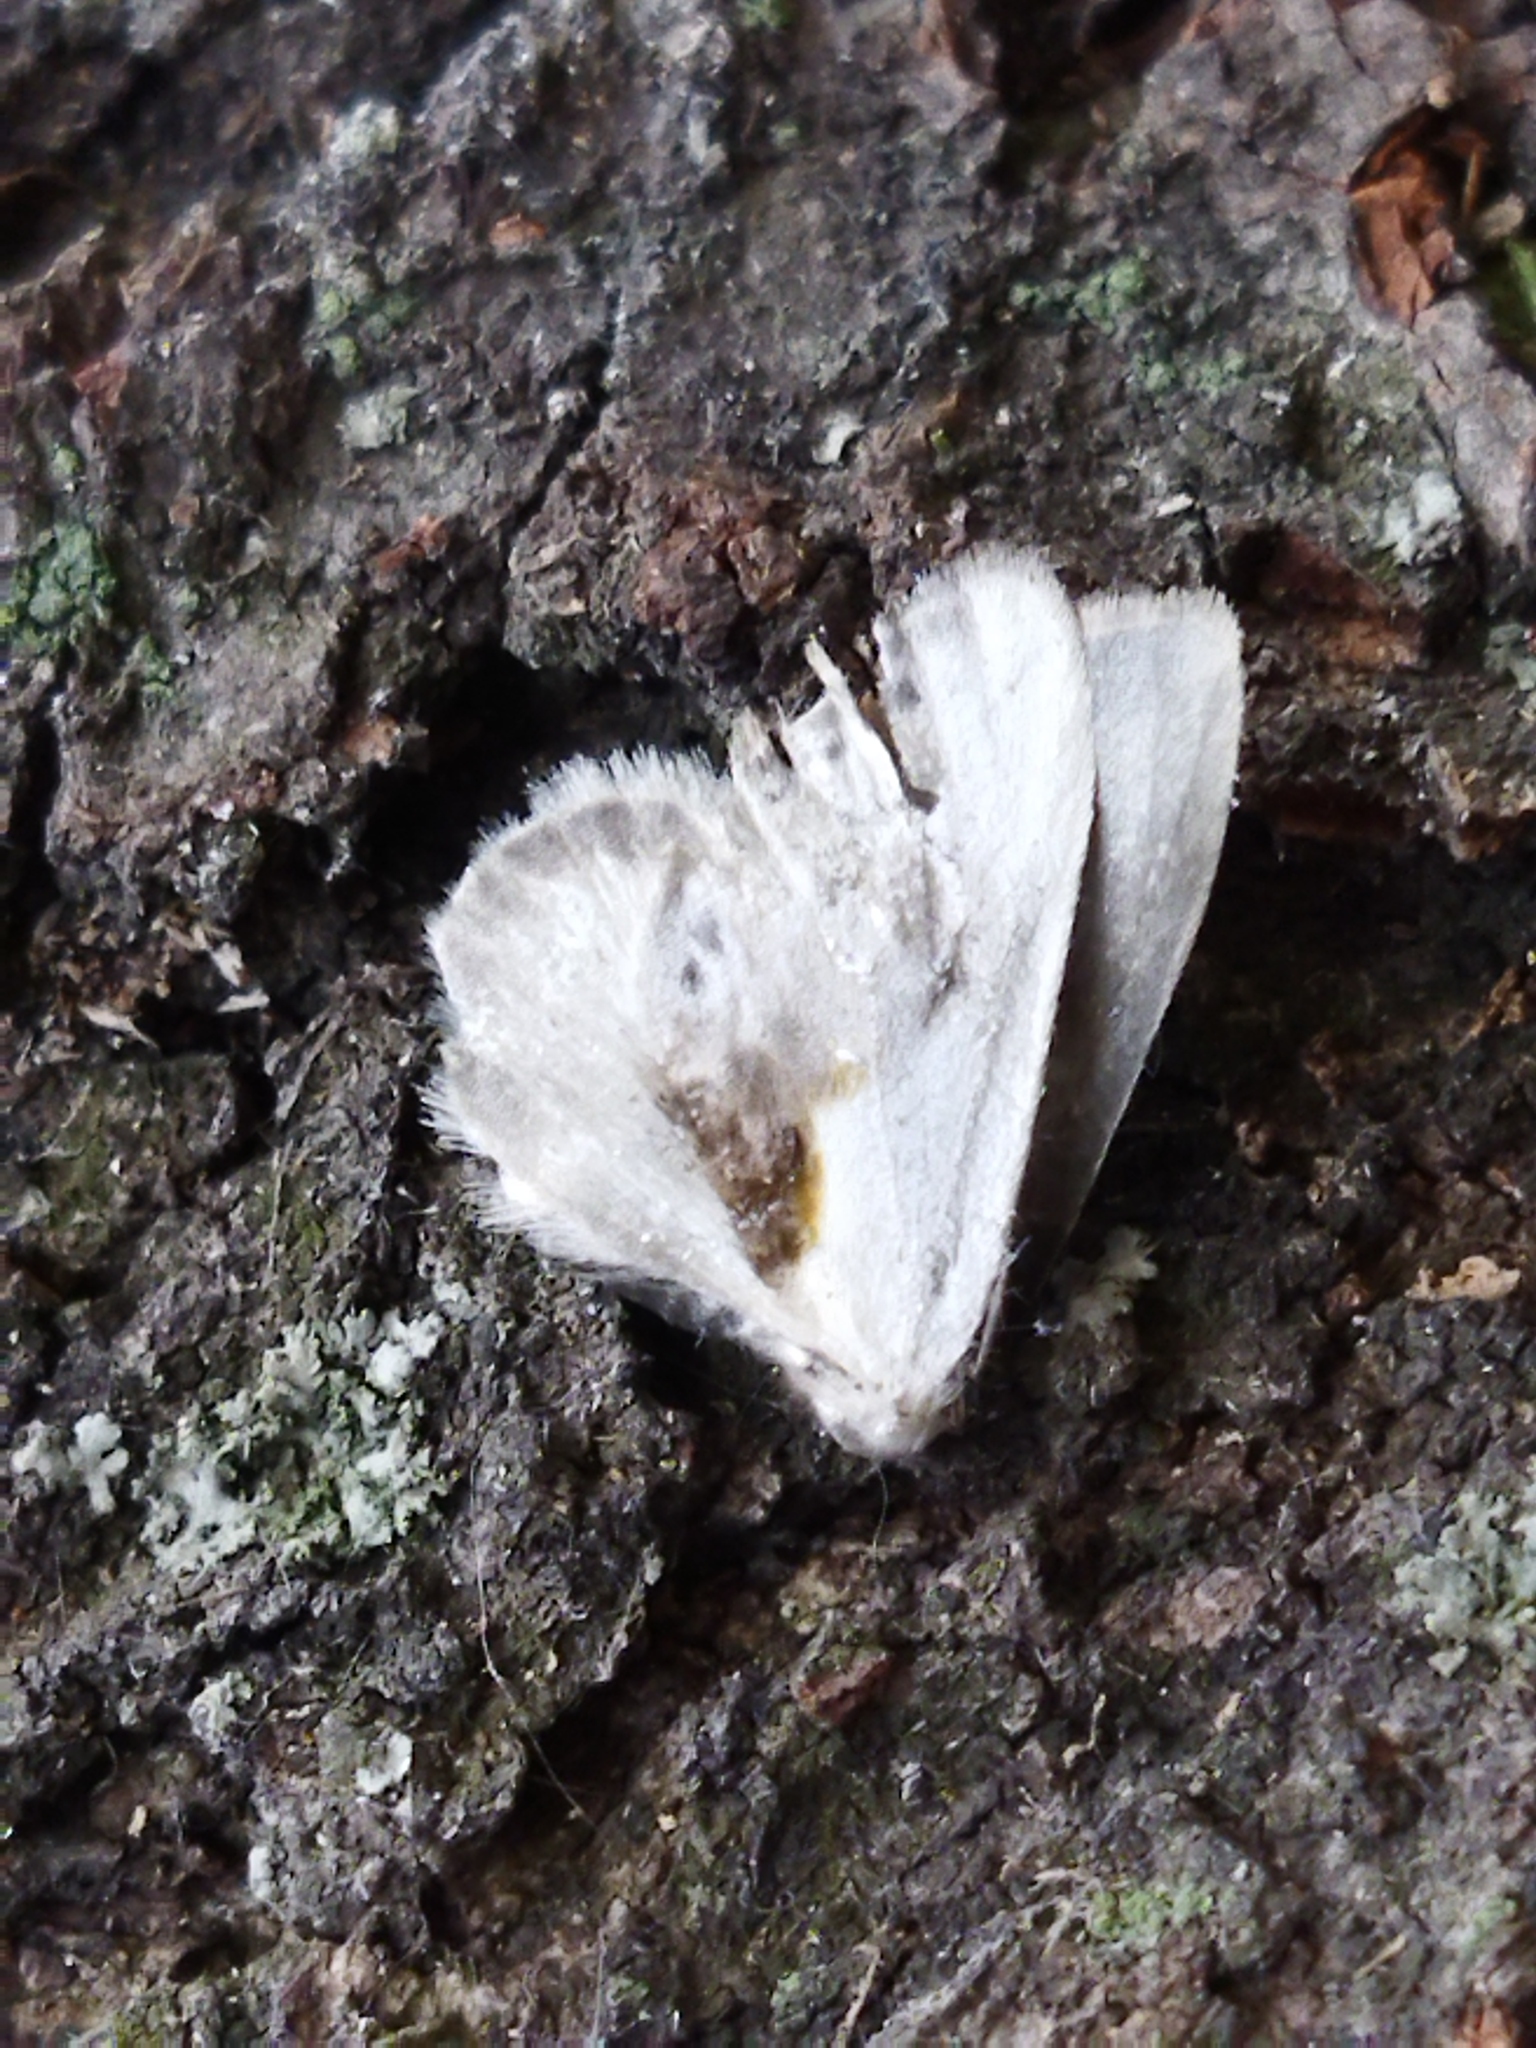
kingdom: Animalia
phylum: Arthropoda
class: Insecta
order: Lepidoptera
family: Drepanidae
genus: Cilix
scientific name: Cilix glaucata
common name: Chinese character
